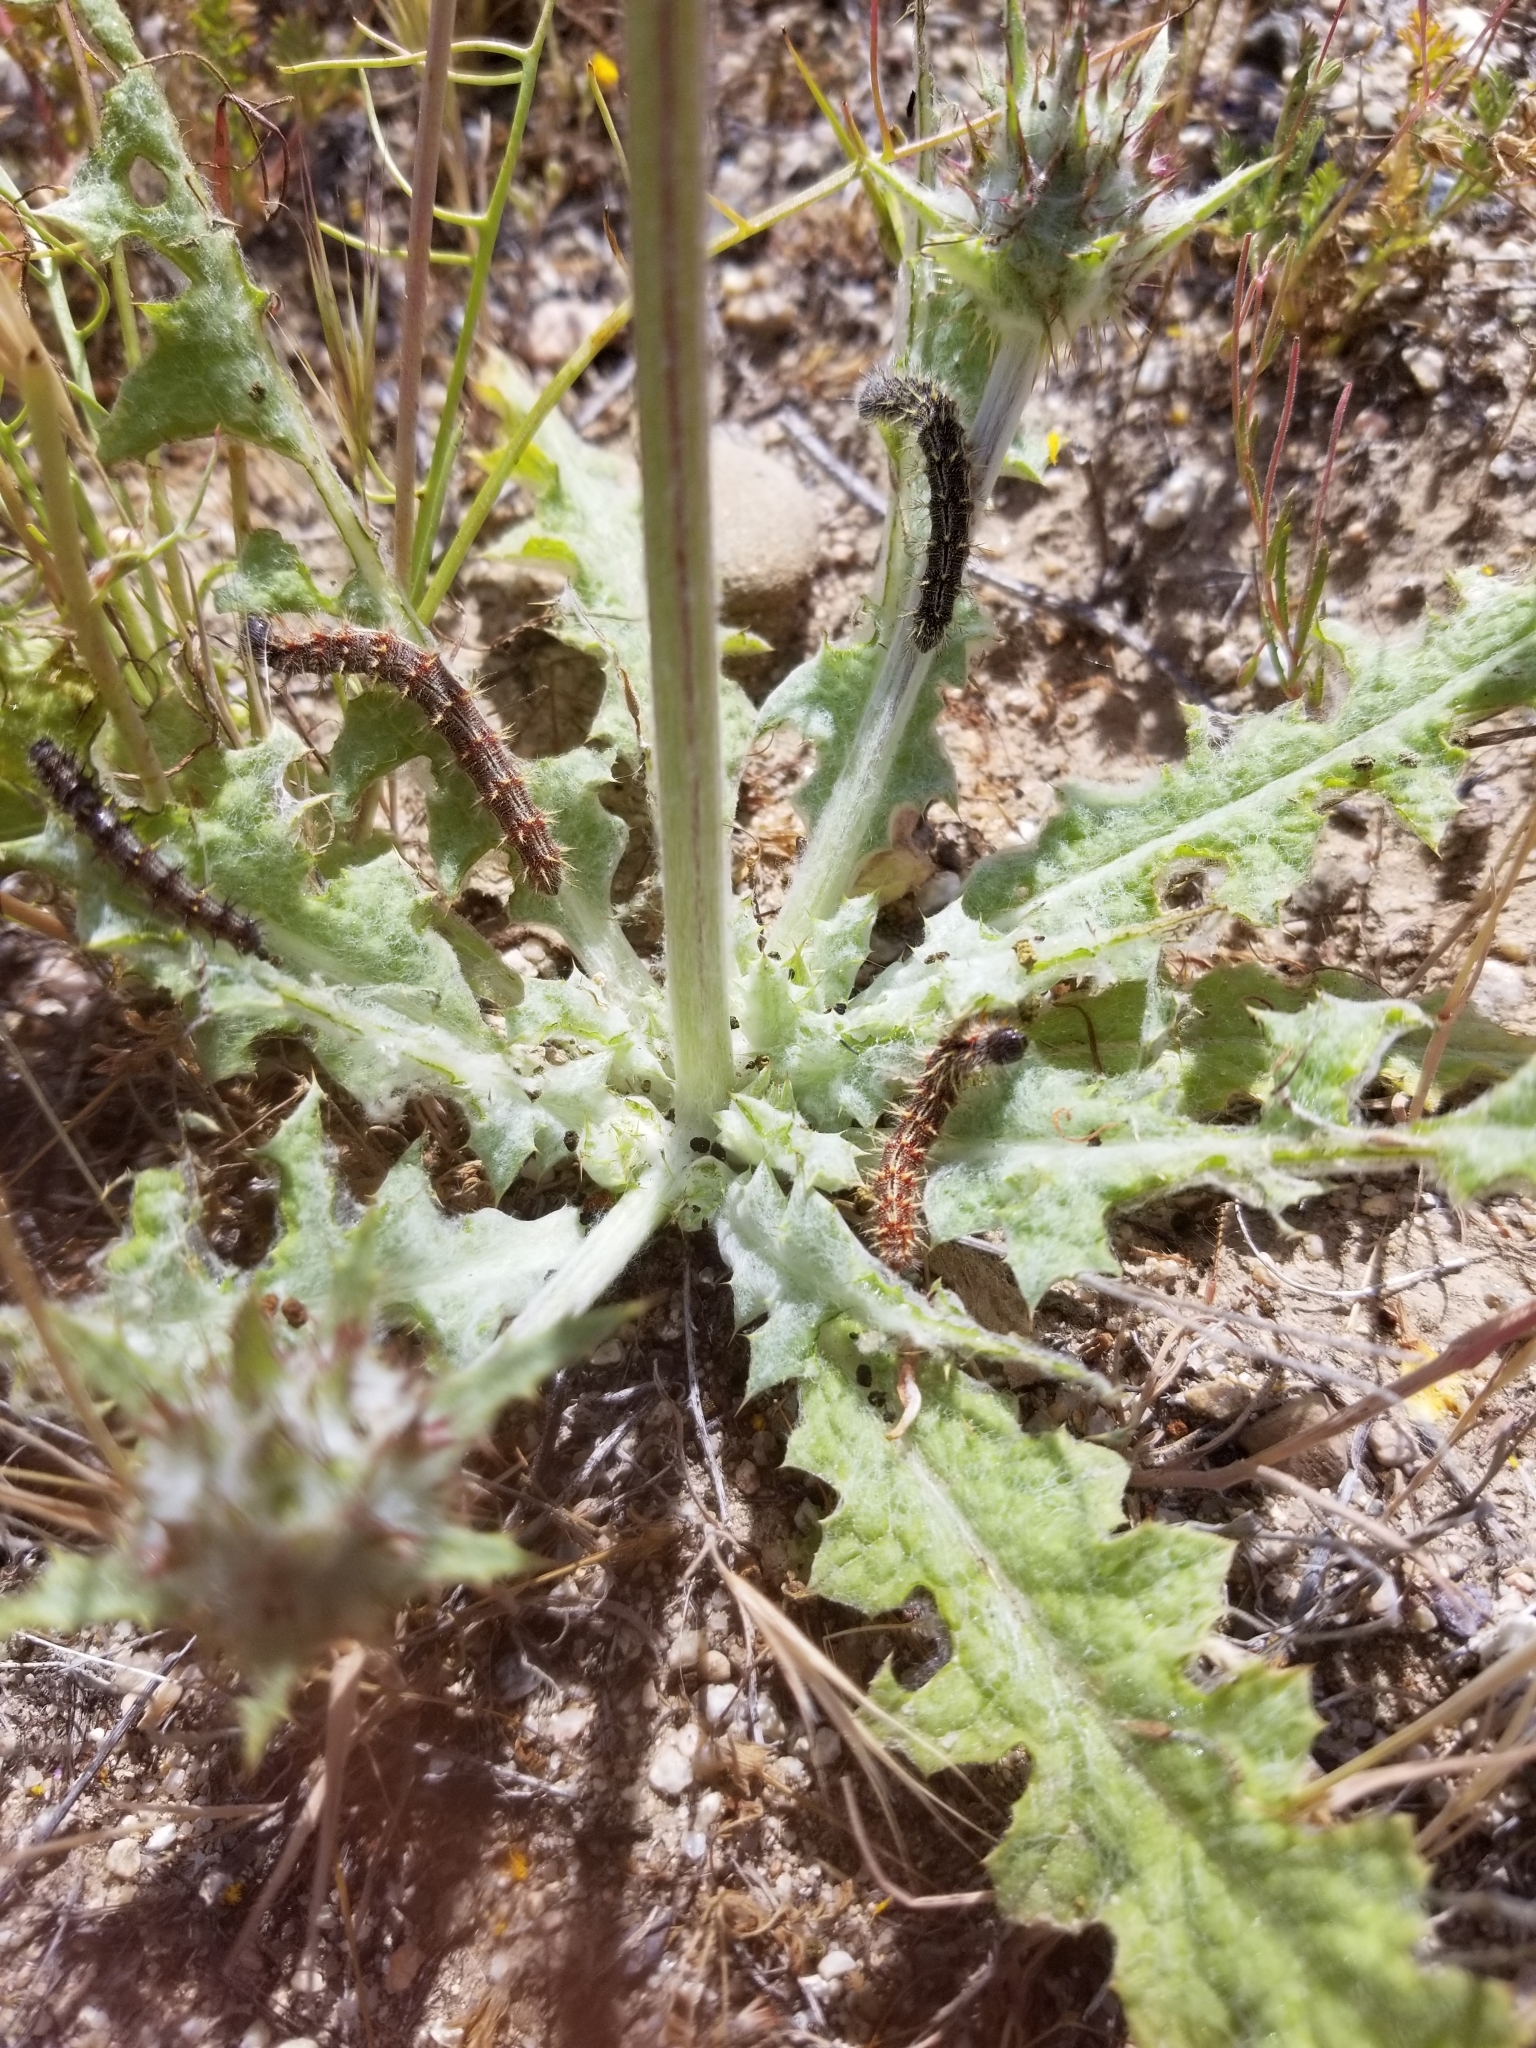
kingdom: Plantae
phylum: Tracheophyta
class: Magnoliopsida
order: Lamiales
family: Lamiaceae
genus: Salvia
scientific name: Salvia carduacea
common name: Thistle sage
